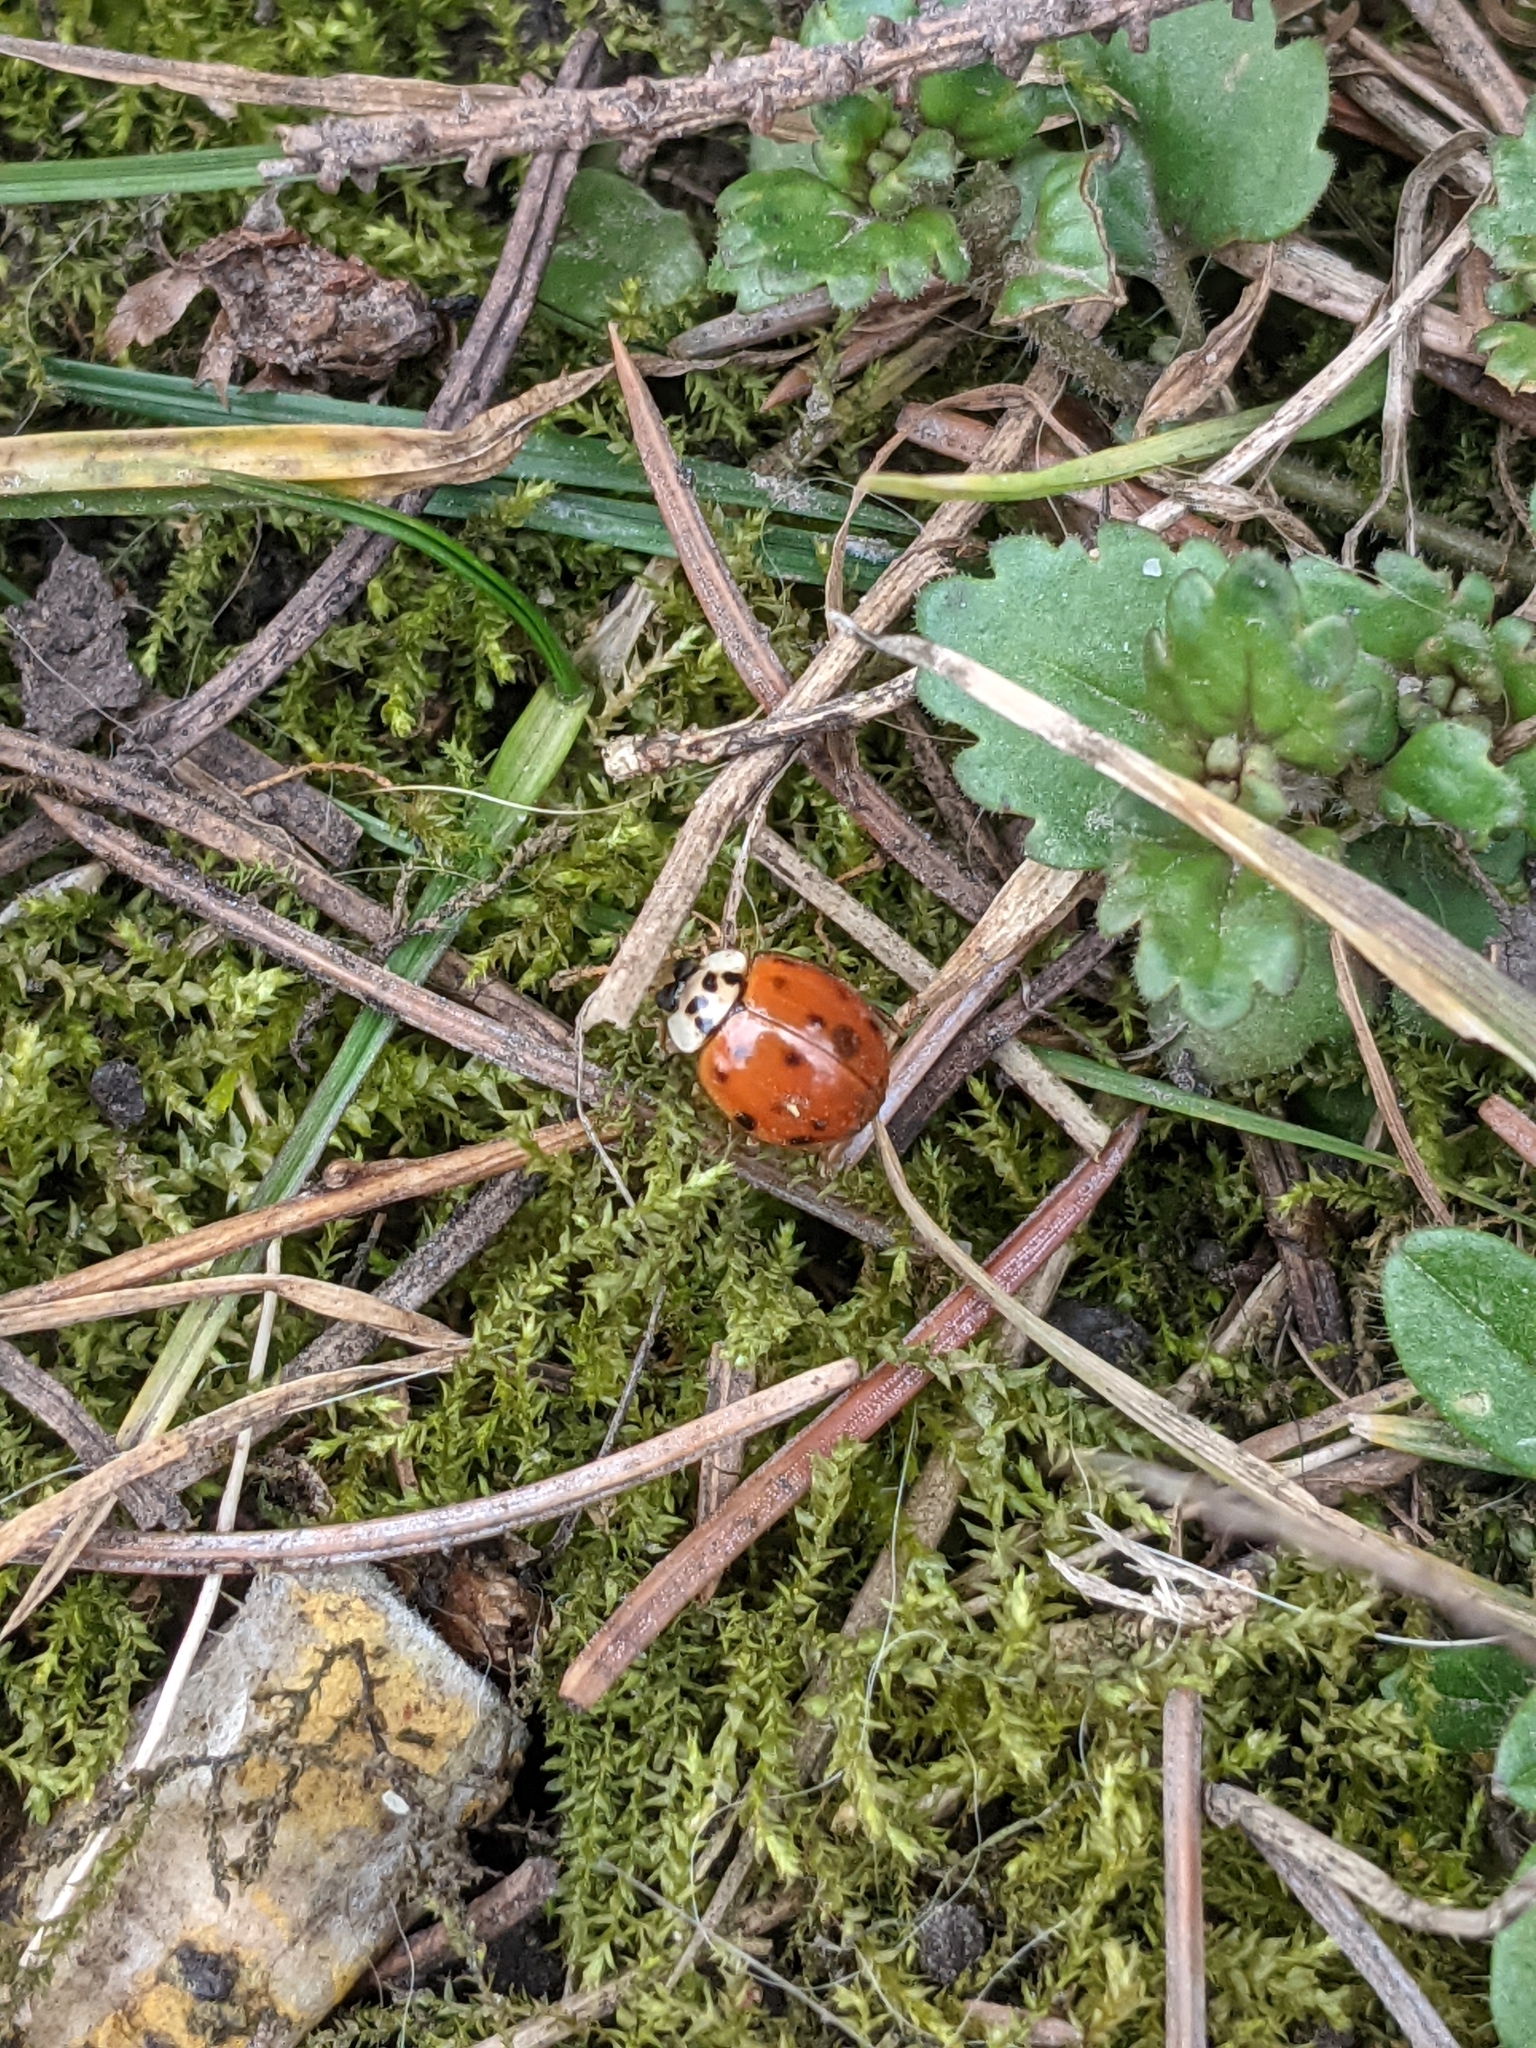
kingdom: Animalia
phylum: Arthropoda
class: Insecta
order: Coleoptera
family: Coccinellidae
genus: Harmonia
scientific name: Harmonia axyridis
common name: Harlequin ladybird
